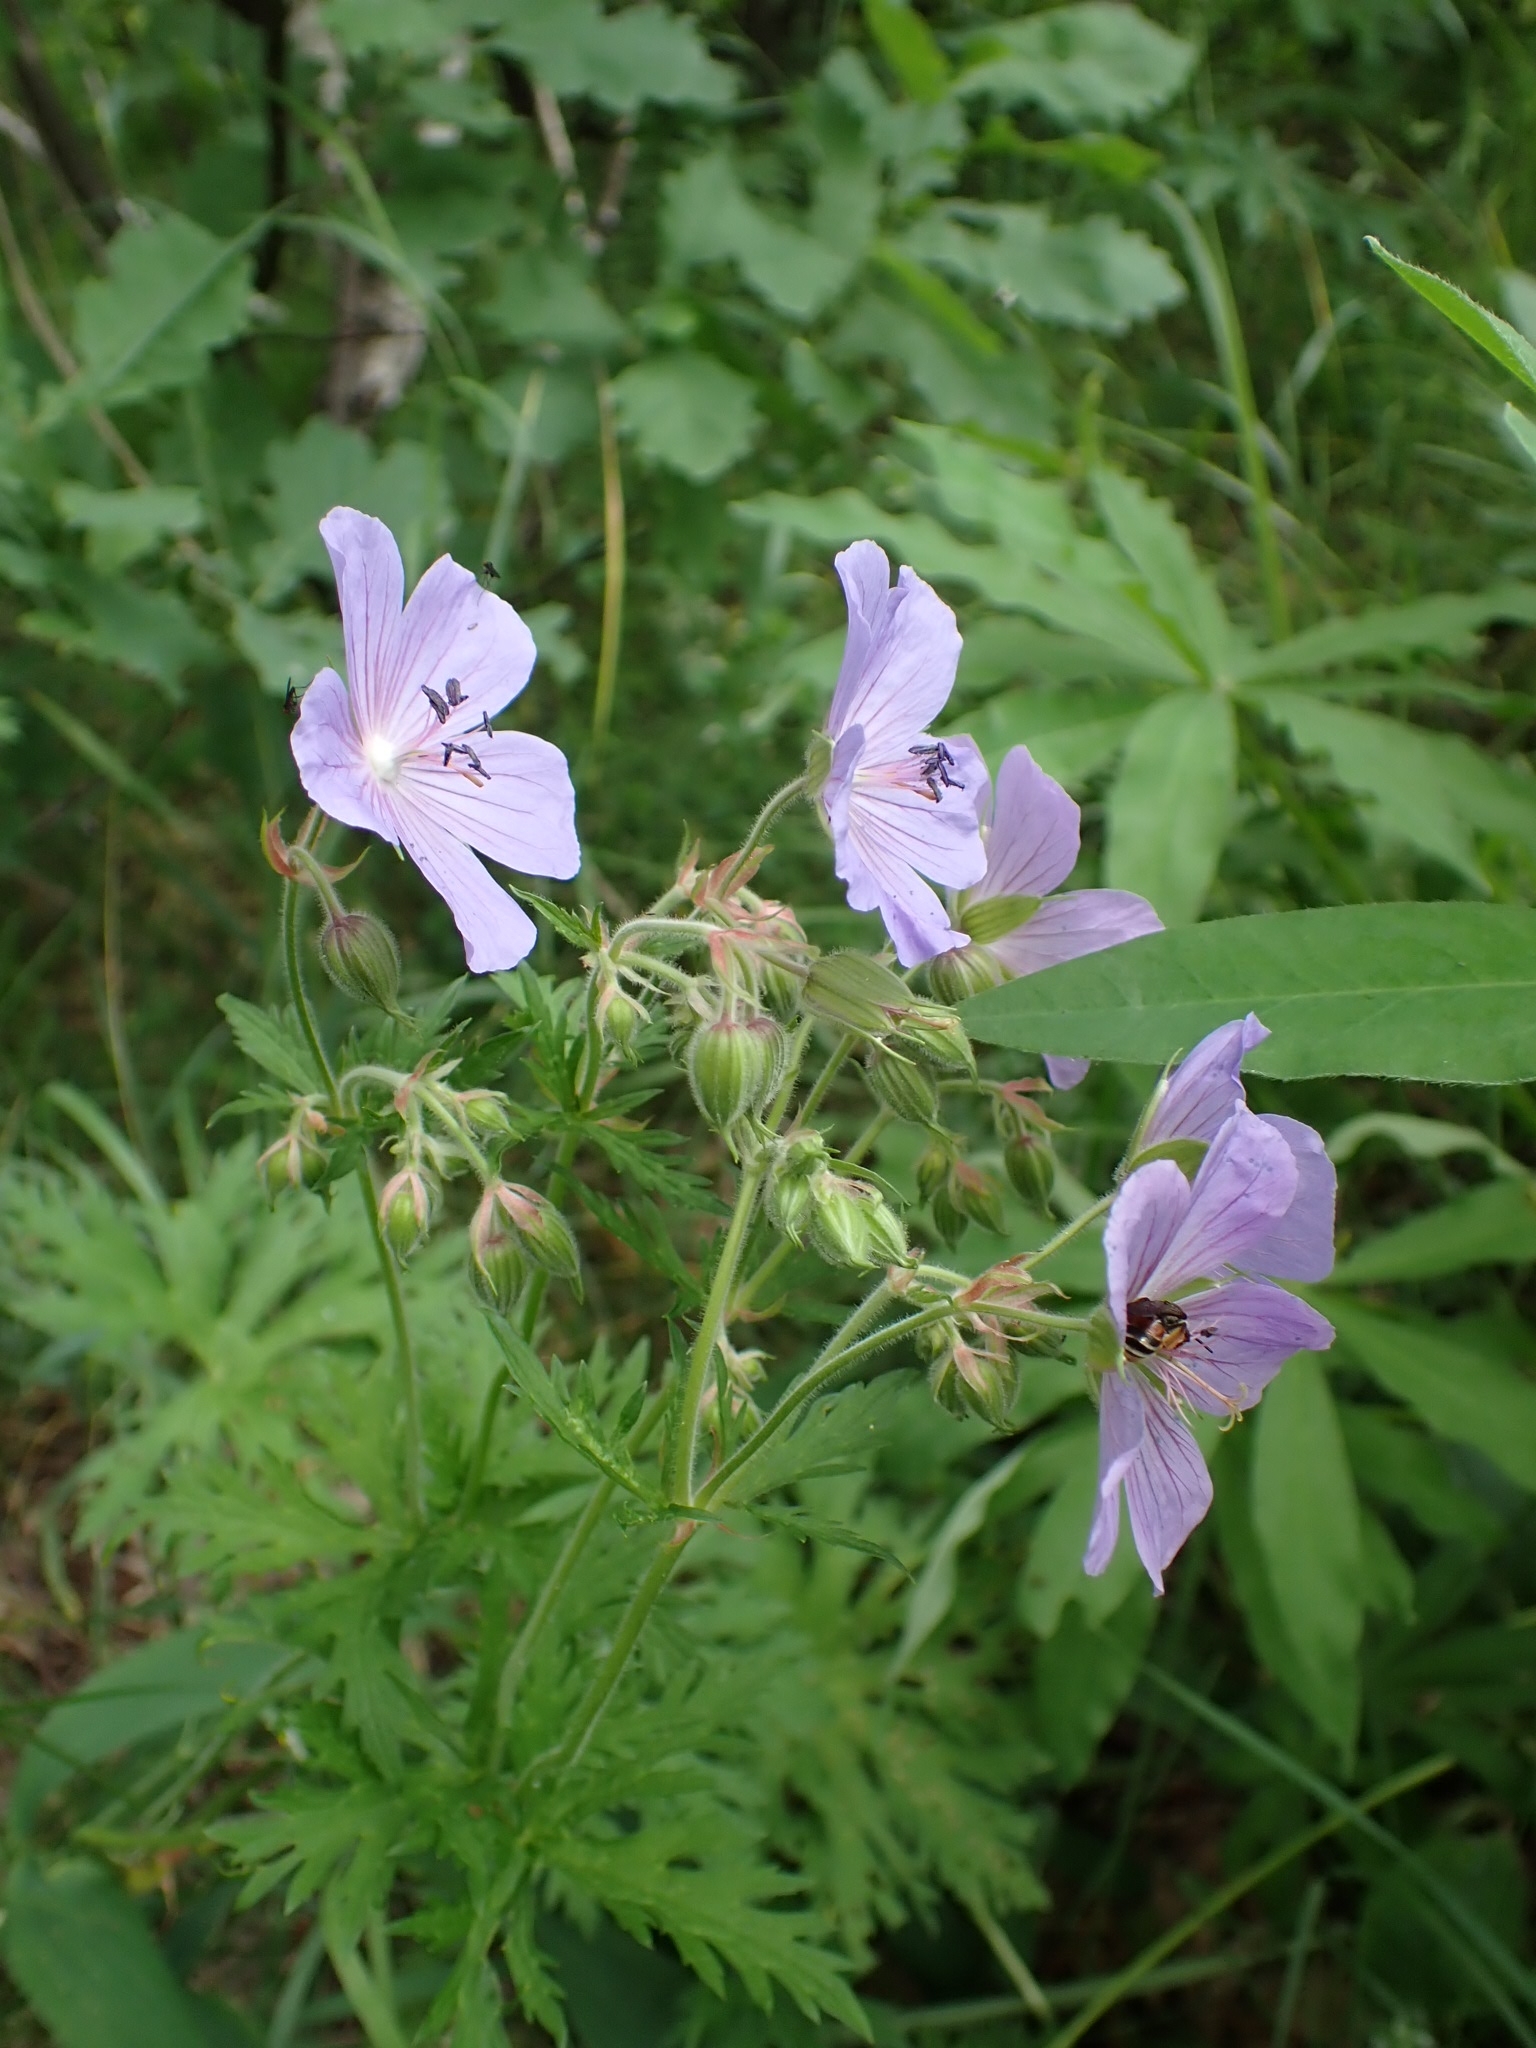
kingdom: Plantae
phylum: Tracheophyta
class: Magnoliopsida
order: Geraniales
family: Geraniaceae
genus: Geranium
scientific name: Geranium pratense
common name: Meadow crane's-bill
